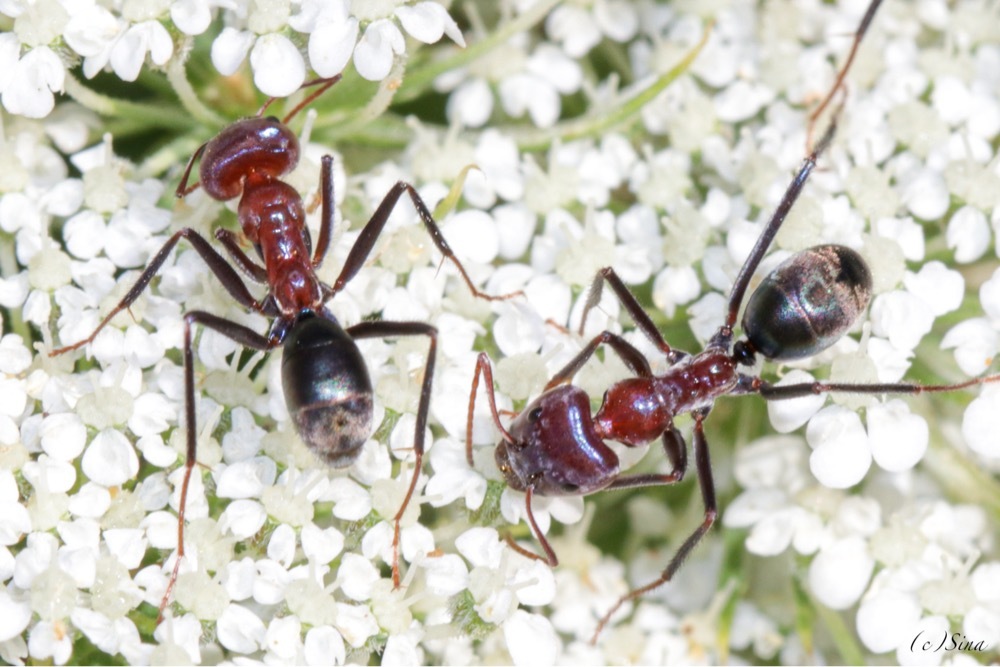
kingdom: Animalia
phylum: Arthropoda
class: Insecta
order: Hymenoptera
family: Formicidae
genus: Iridomyrmex
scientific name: Iridomyrmex purpureus
